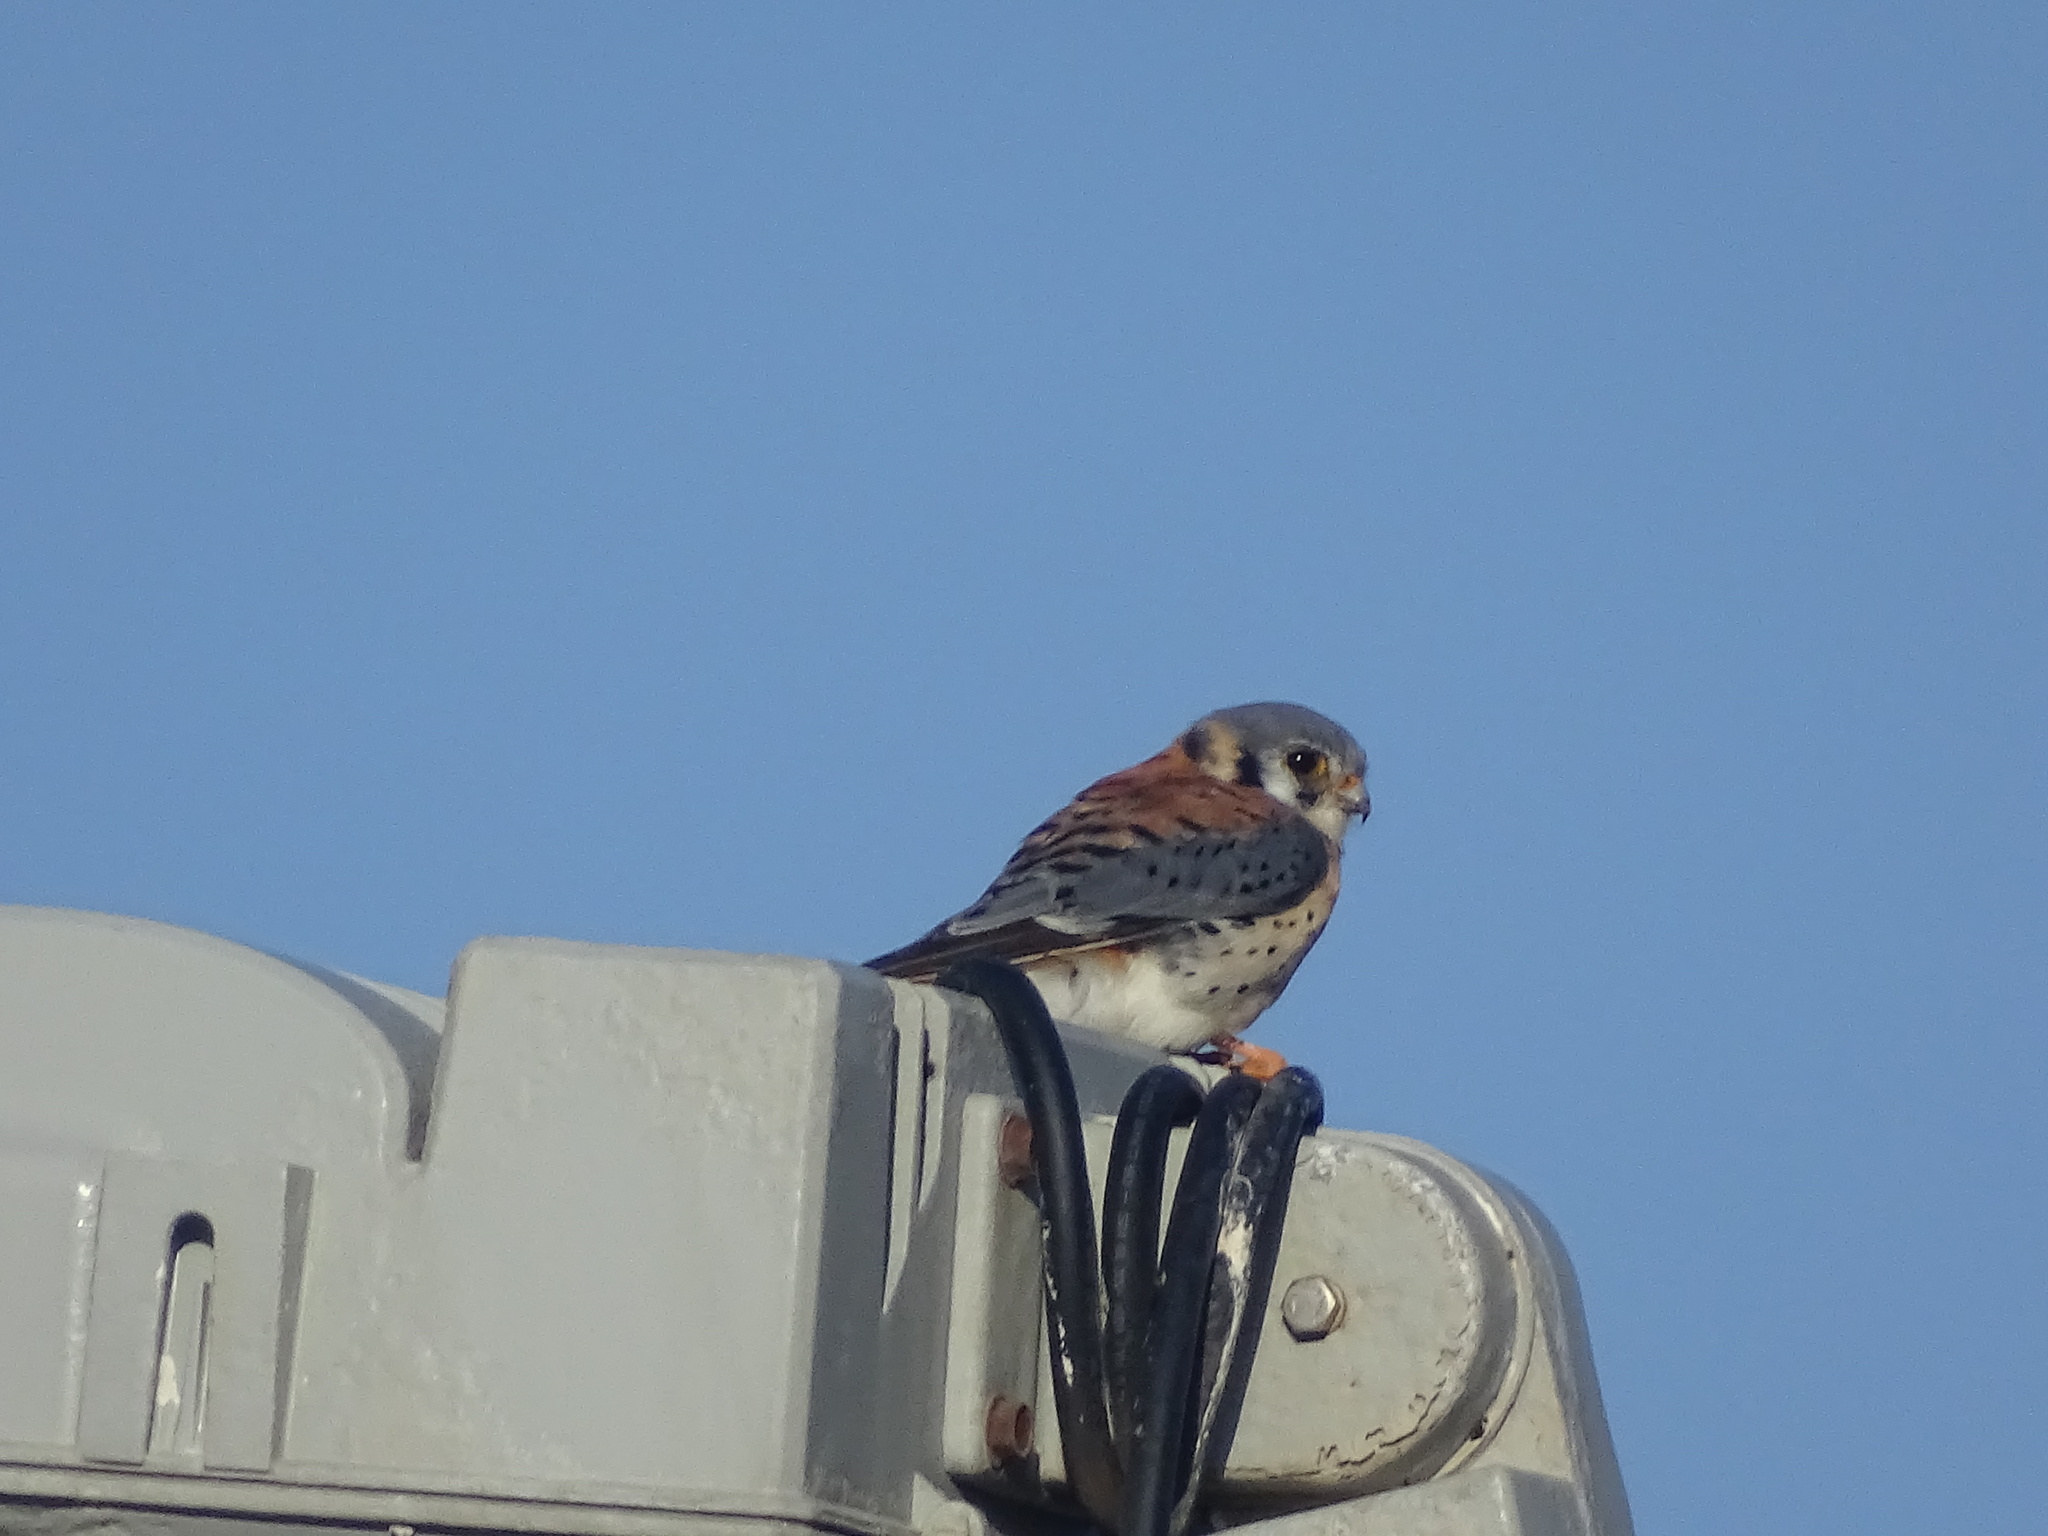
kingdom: Animalia
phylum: Chordata
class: Aves
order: Falconiformes
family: Falconidae
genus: Falco
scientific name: Falco sparverius
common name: American kestrel
